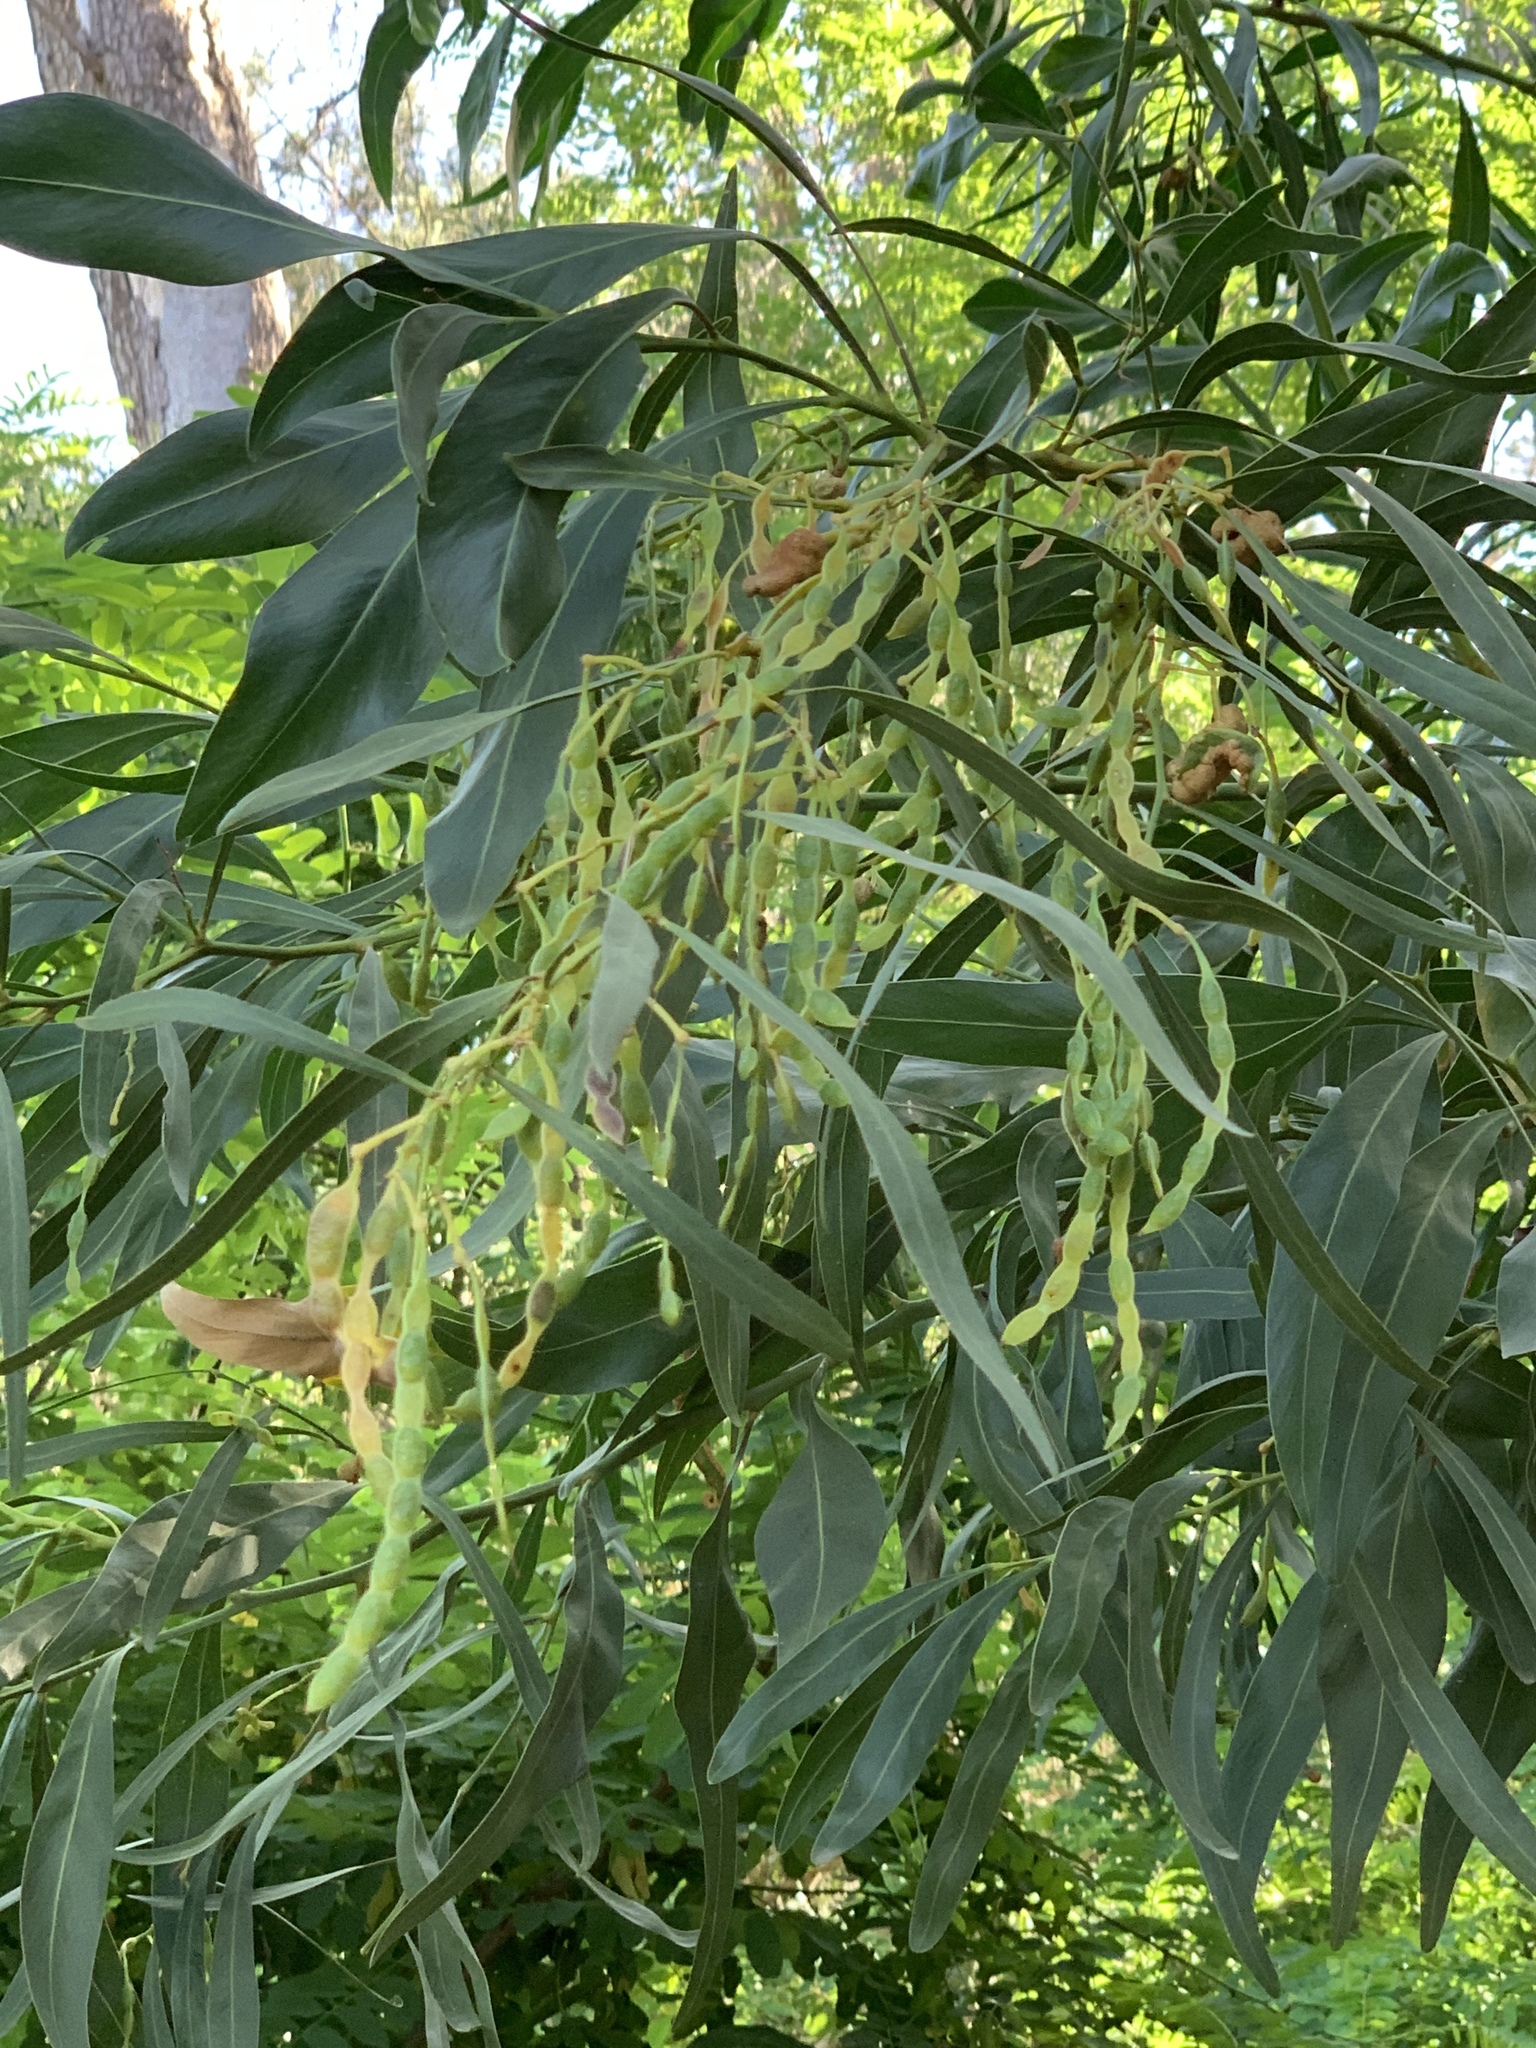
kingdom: Plantae
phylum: Tracheophyta
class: Magnoliopsida
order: Fabales
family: Fabaceae
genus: Acacia
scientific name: Acacia saligna
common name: Orange wattle
